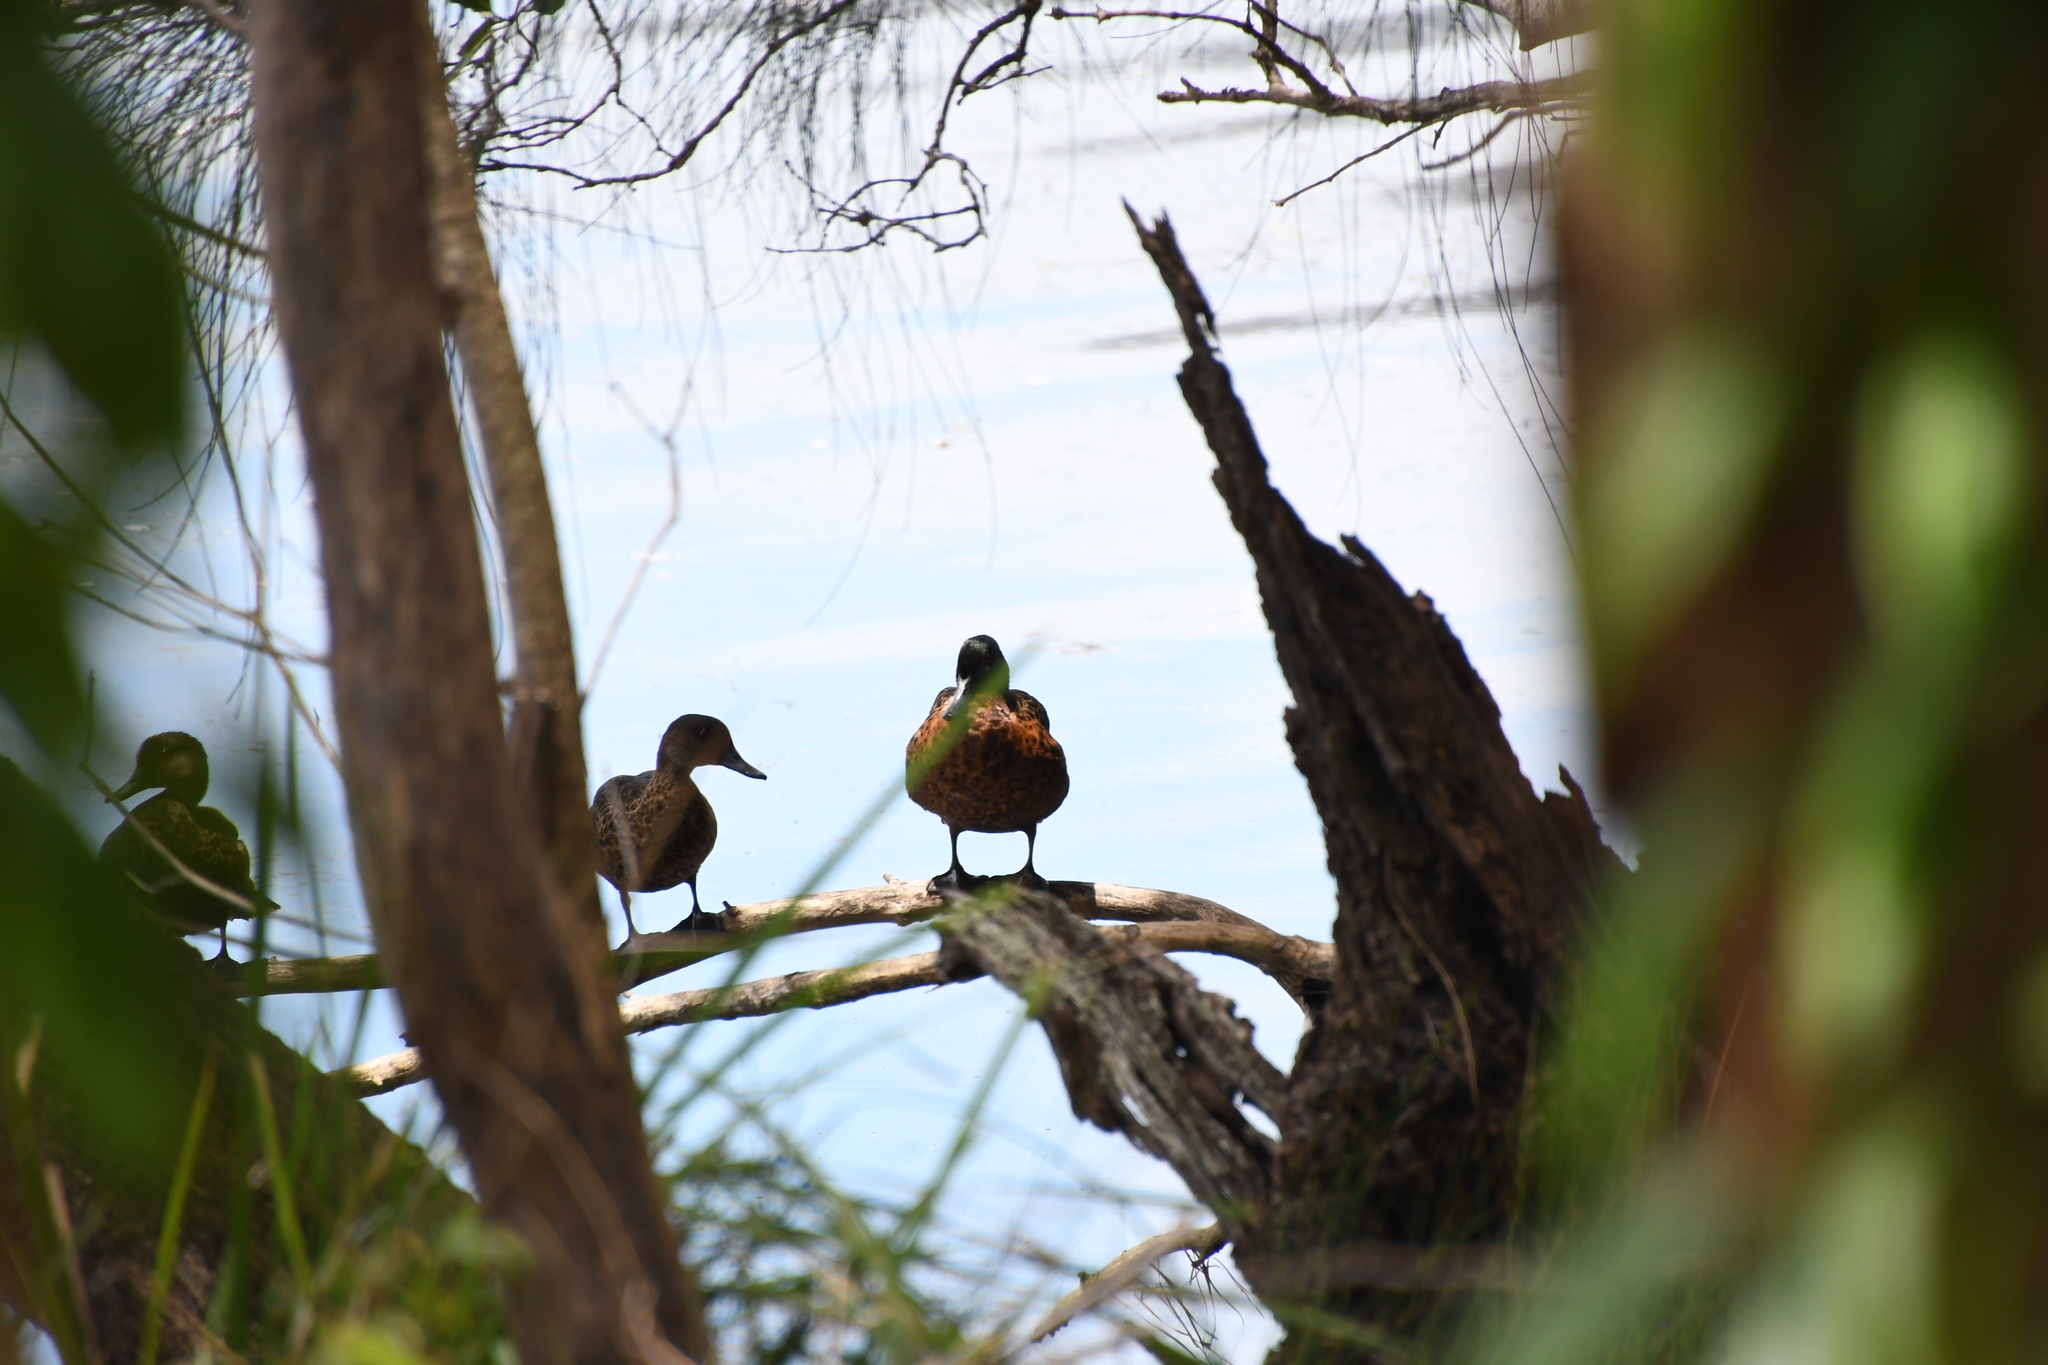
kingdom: Animalia
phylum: Chordata
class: Aves
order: Anseriformes
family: Anatidae
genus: Anas
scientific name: Anas castanea
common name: Chestnut teal
